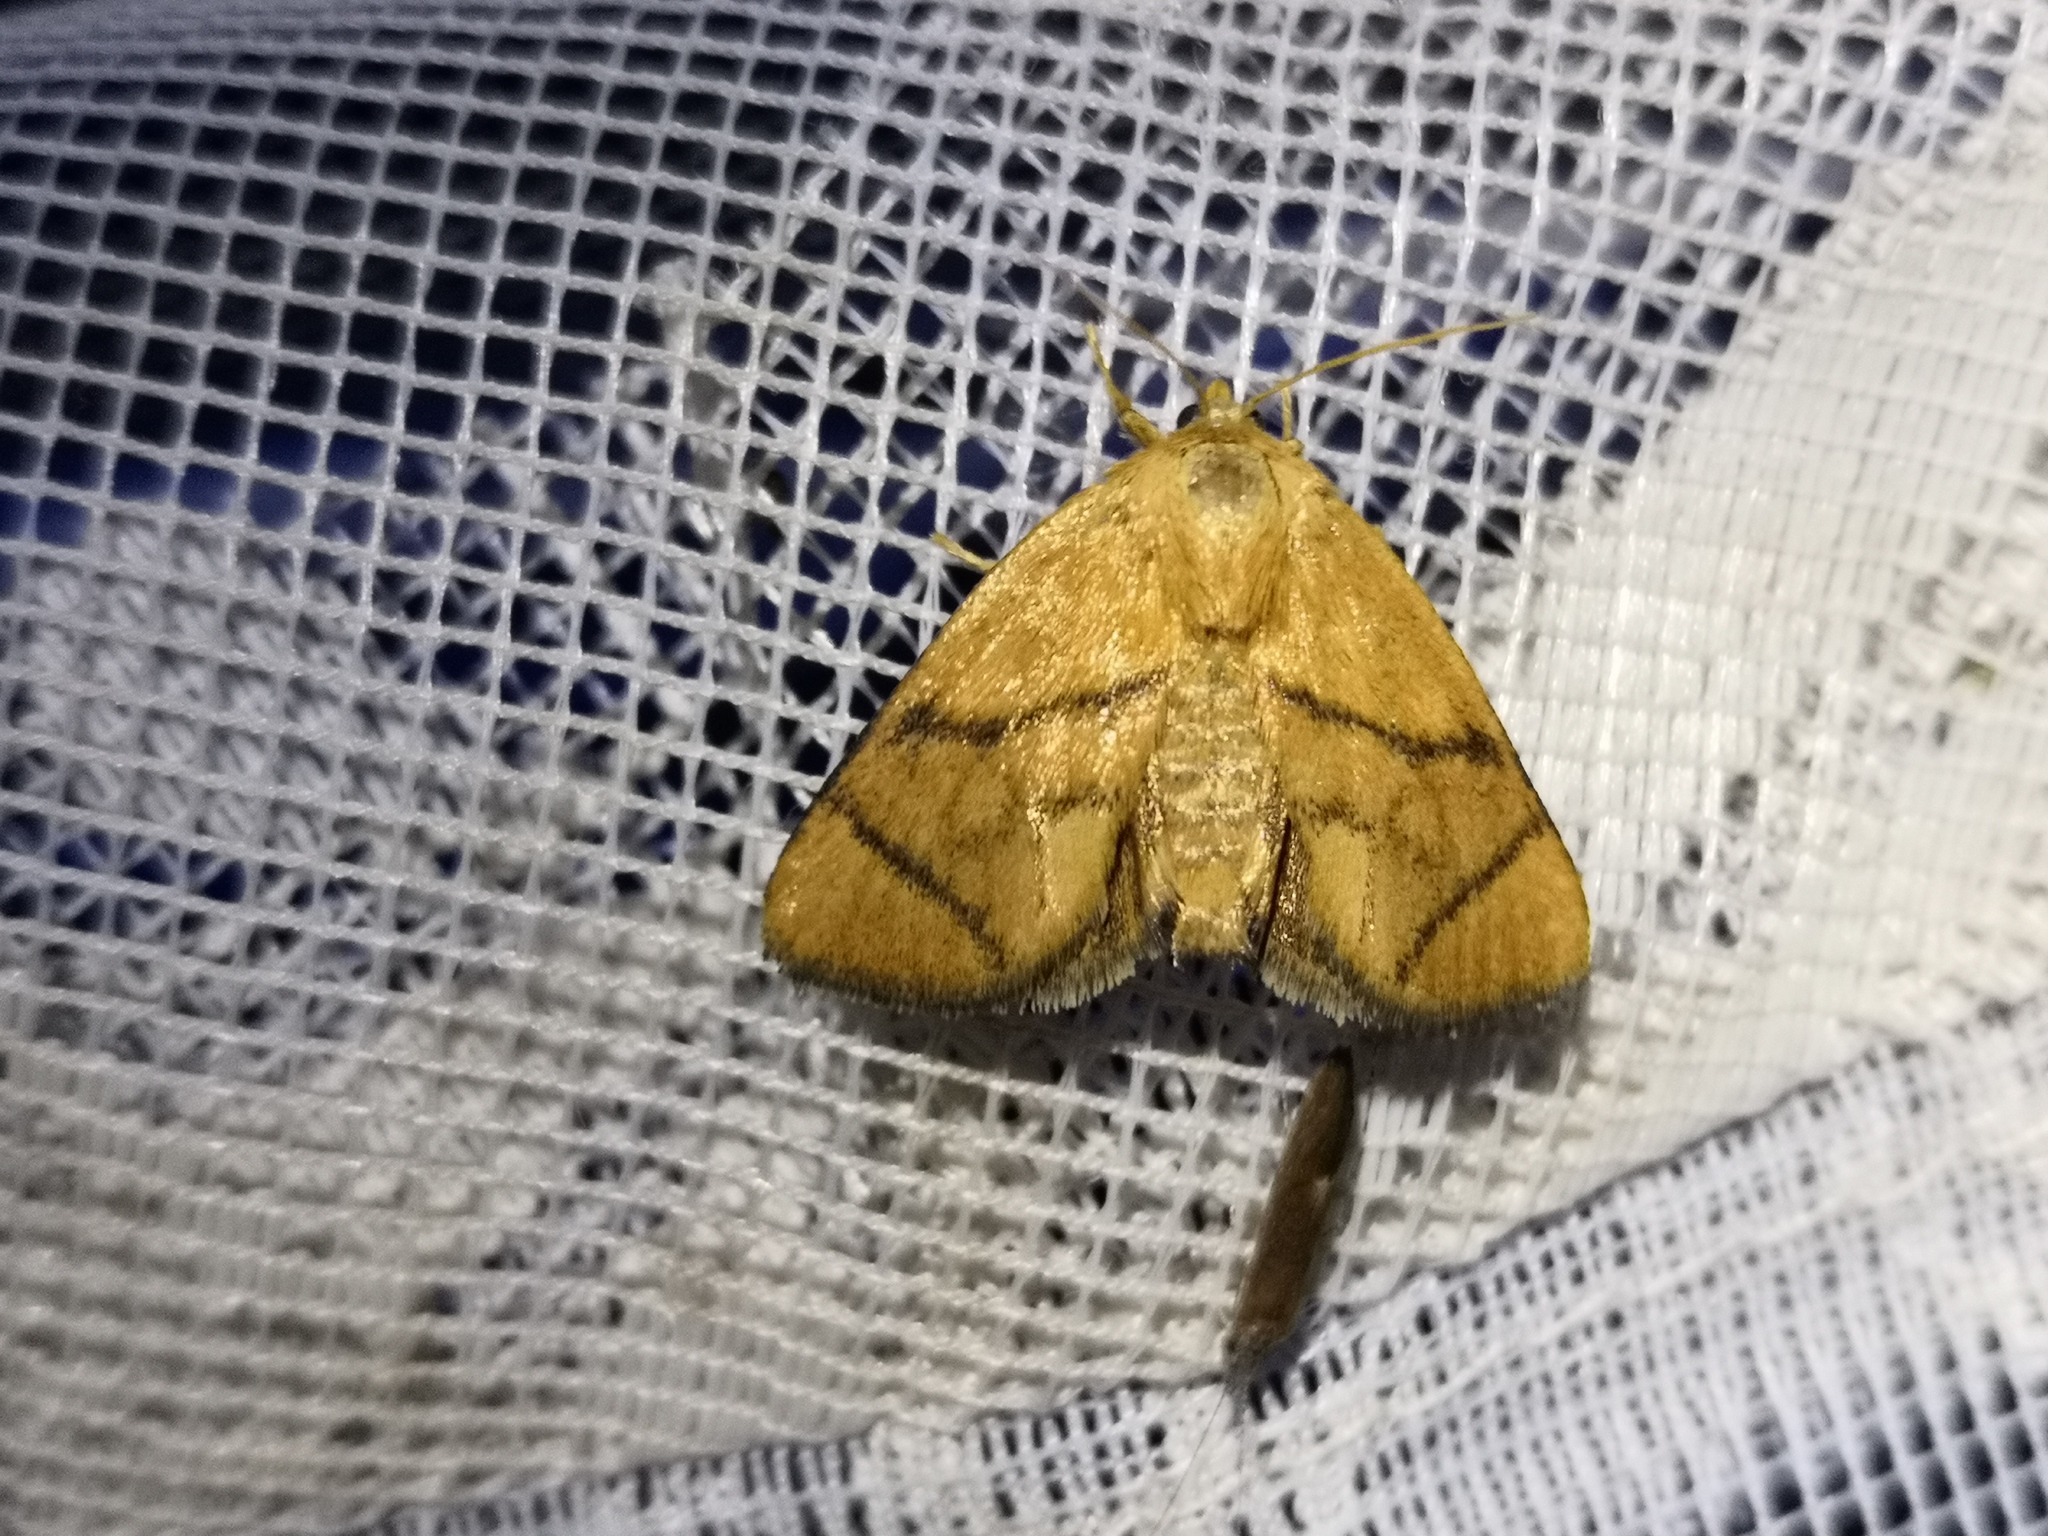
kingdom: Animalia
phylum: Arthropoda
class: Insecta
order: Lepidoptera
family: Limacodidae
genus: Apoda
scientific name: Apoda limacodes
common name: Festoon
